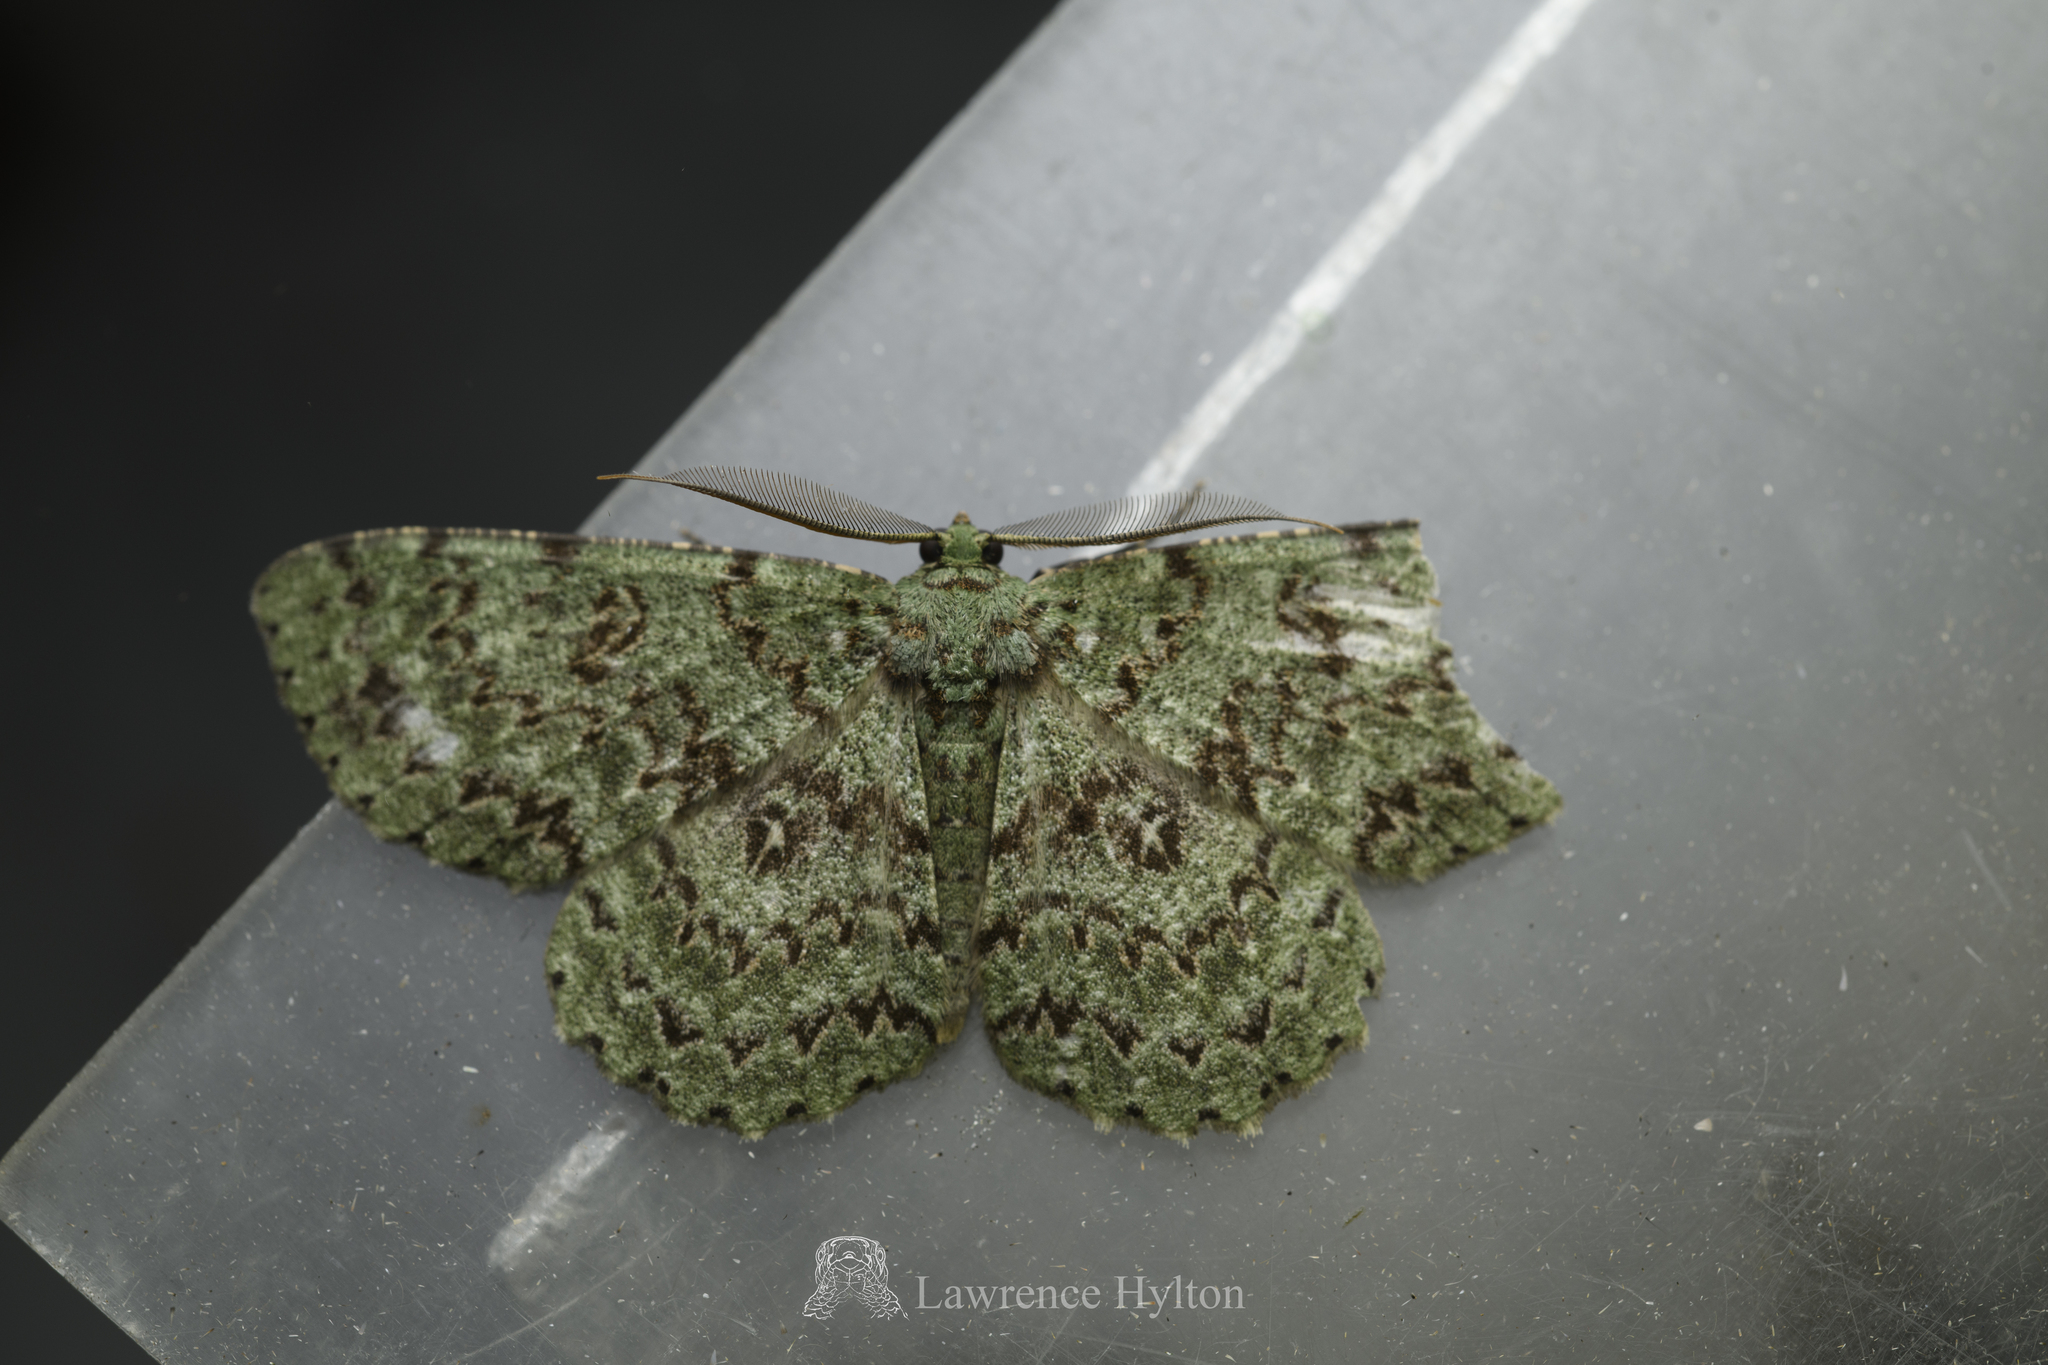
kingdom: Animalia
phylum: Arthropoda
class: Insecta
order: Lepidoptera
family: Geometridae
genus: Ophthalmitis
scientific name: Ophthalmitis herbidaria
